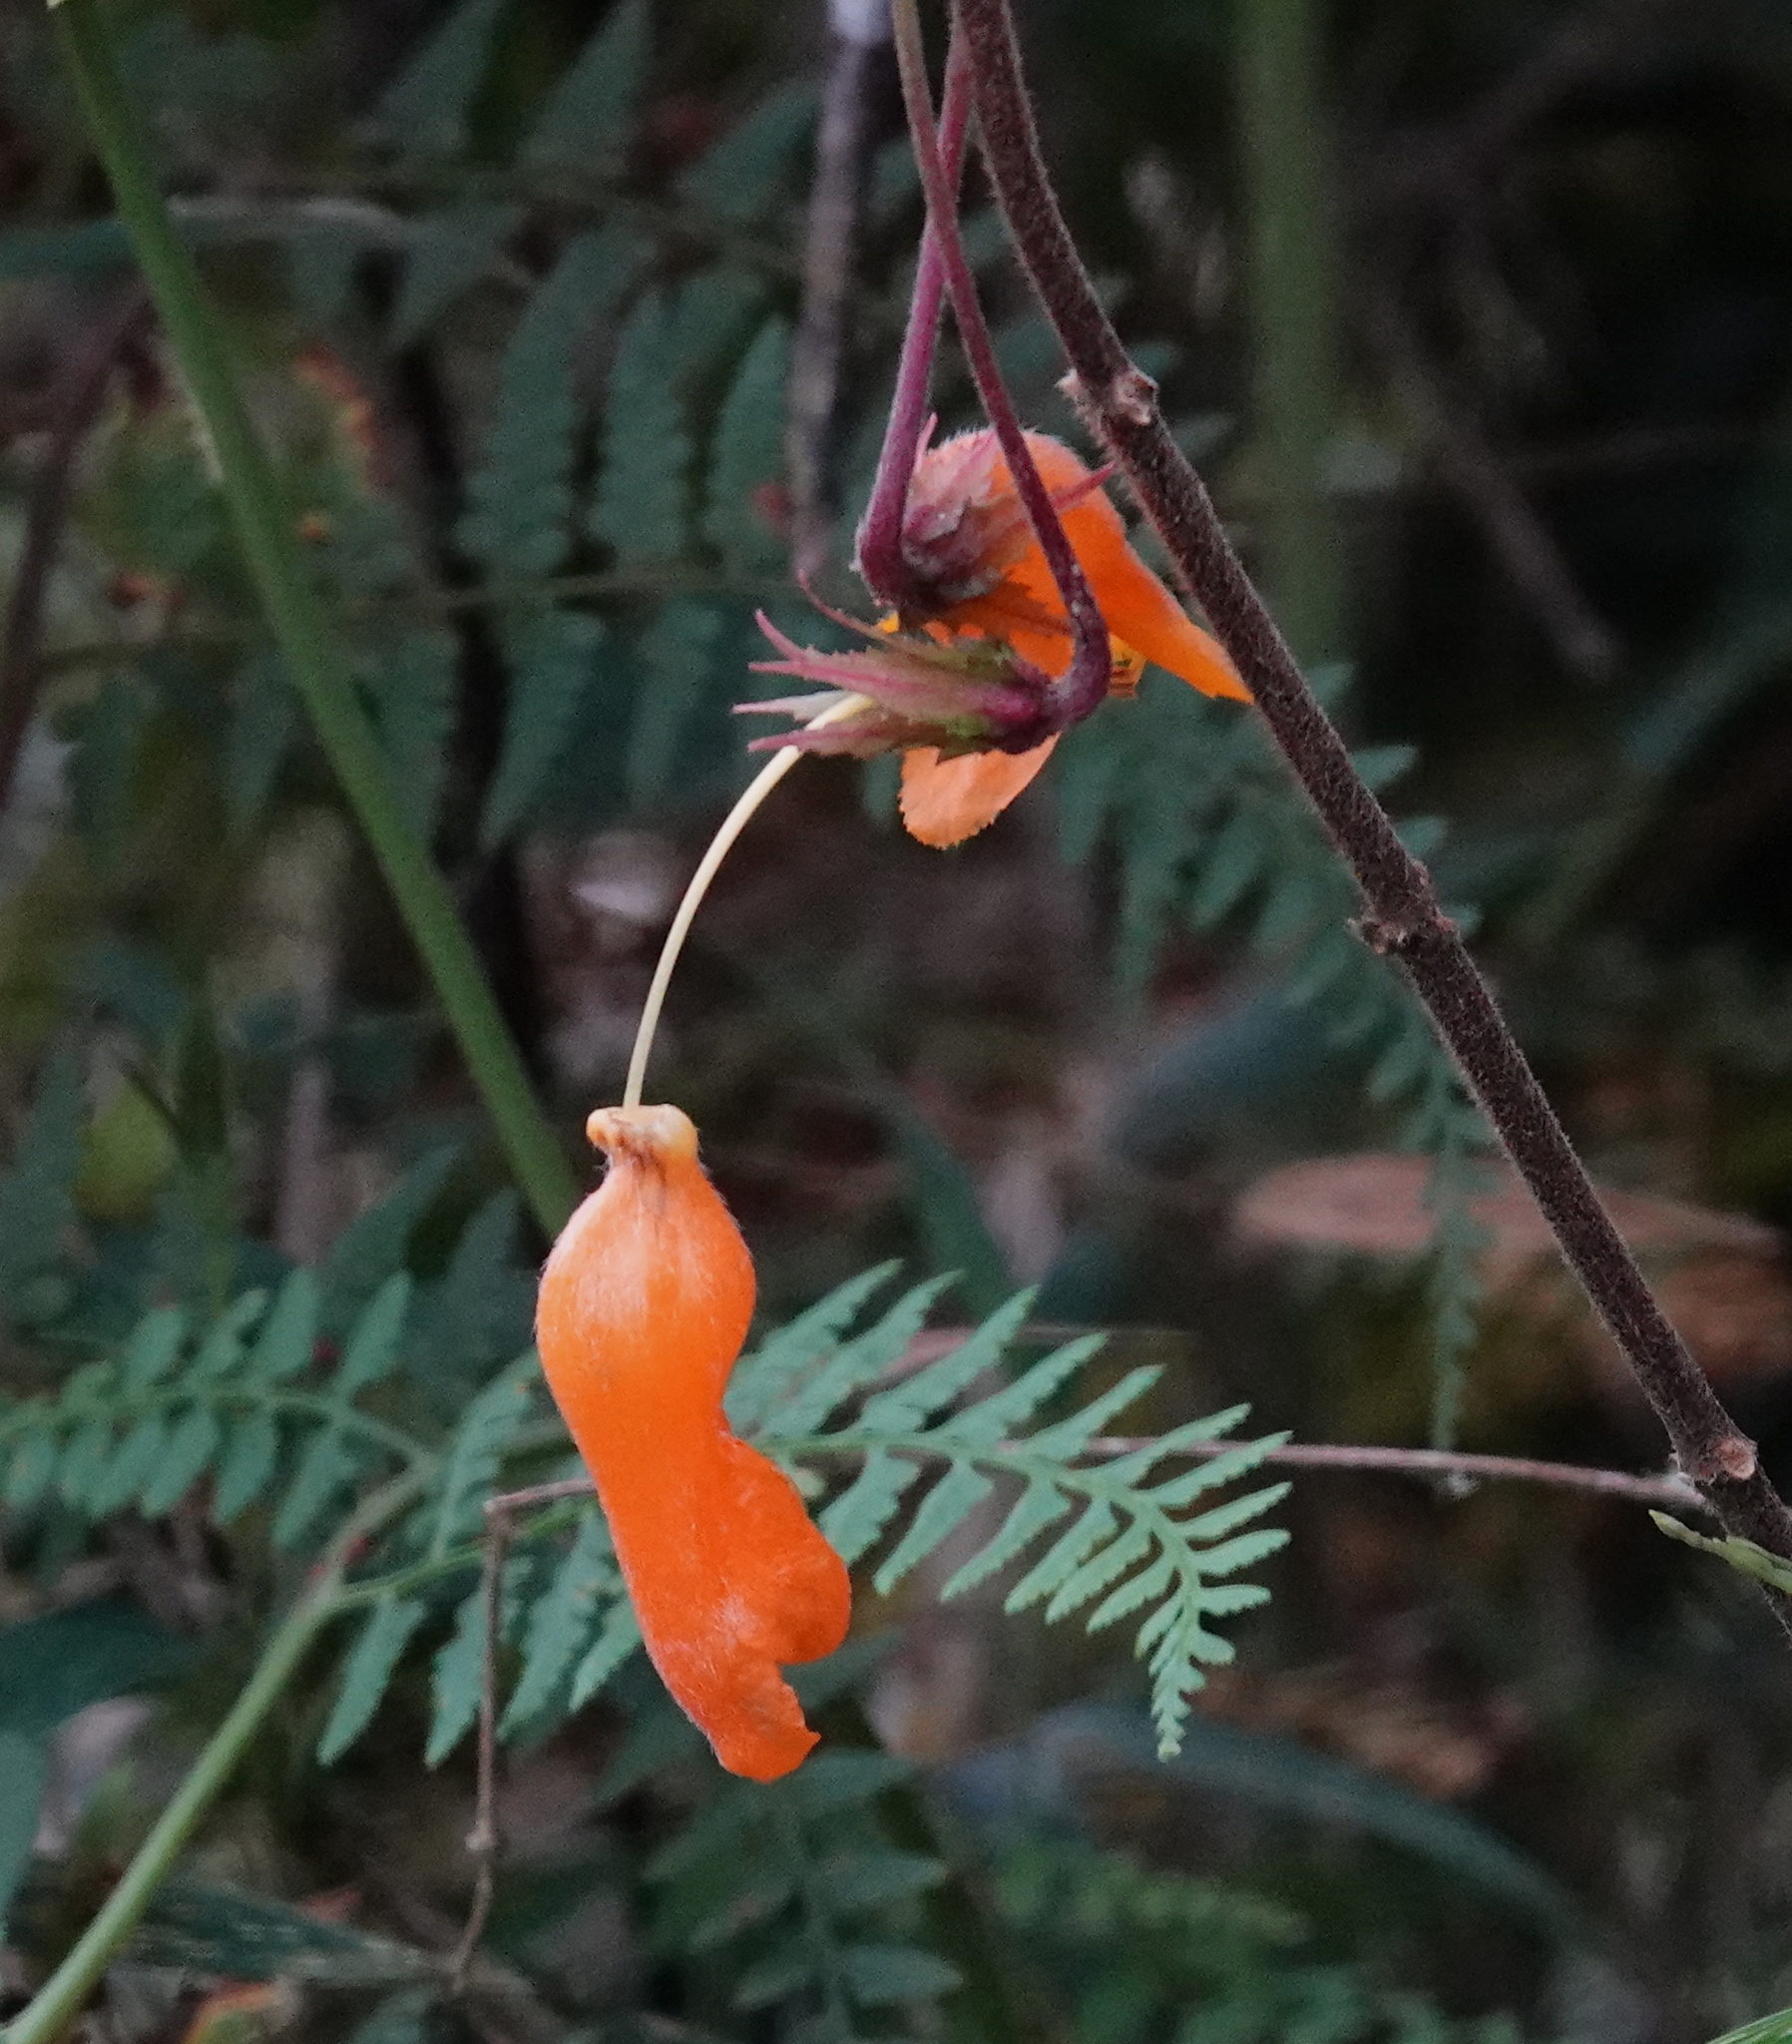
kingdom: Plantae
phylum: Tracheophyta
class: Magnoliopsida
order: Lamiales
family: Gesneriaceae
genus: Columnea
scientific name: Columnea strigosa
